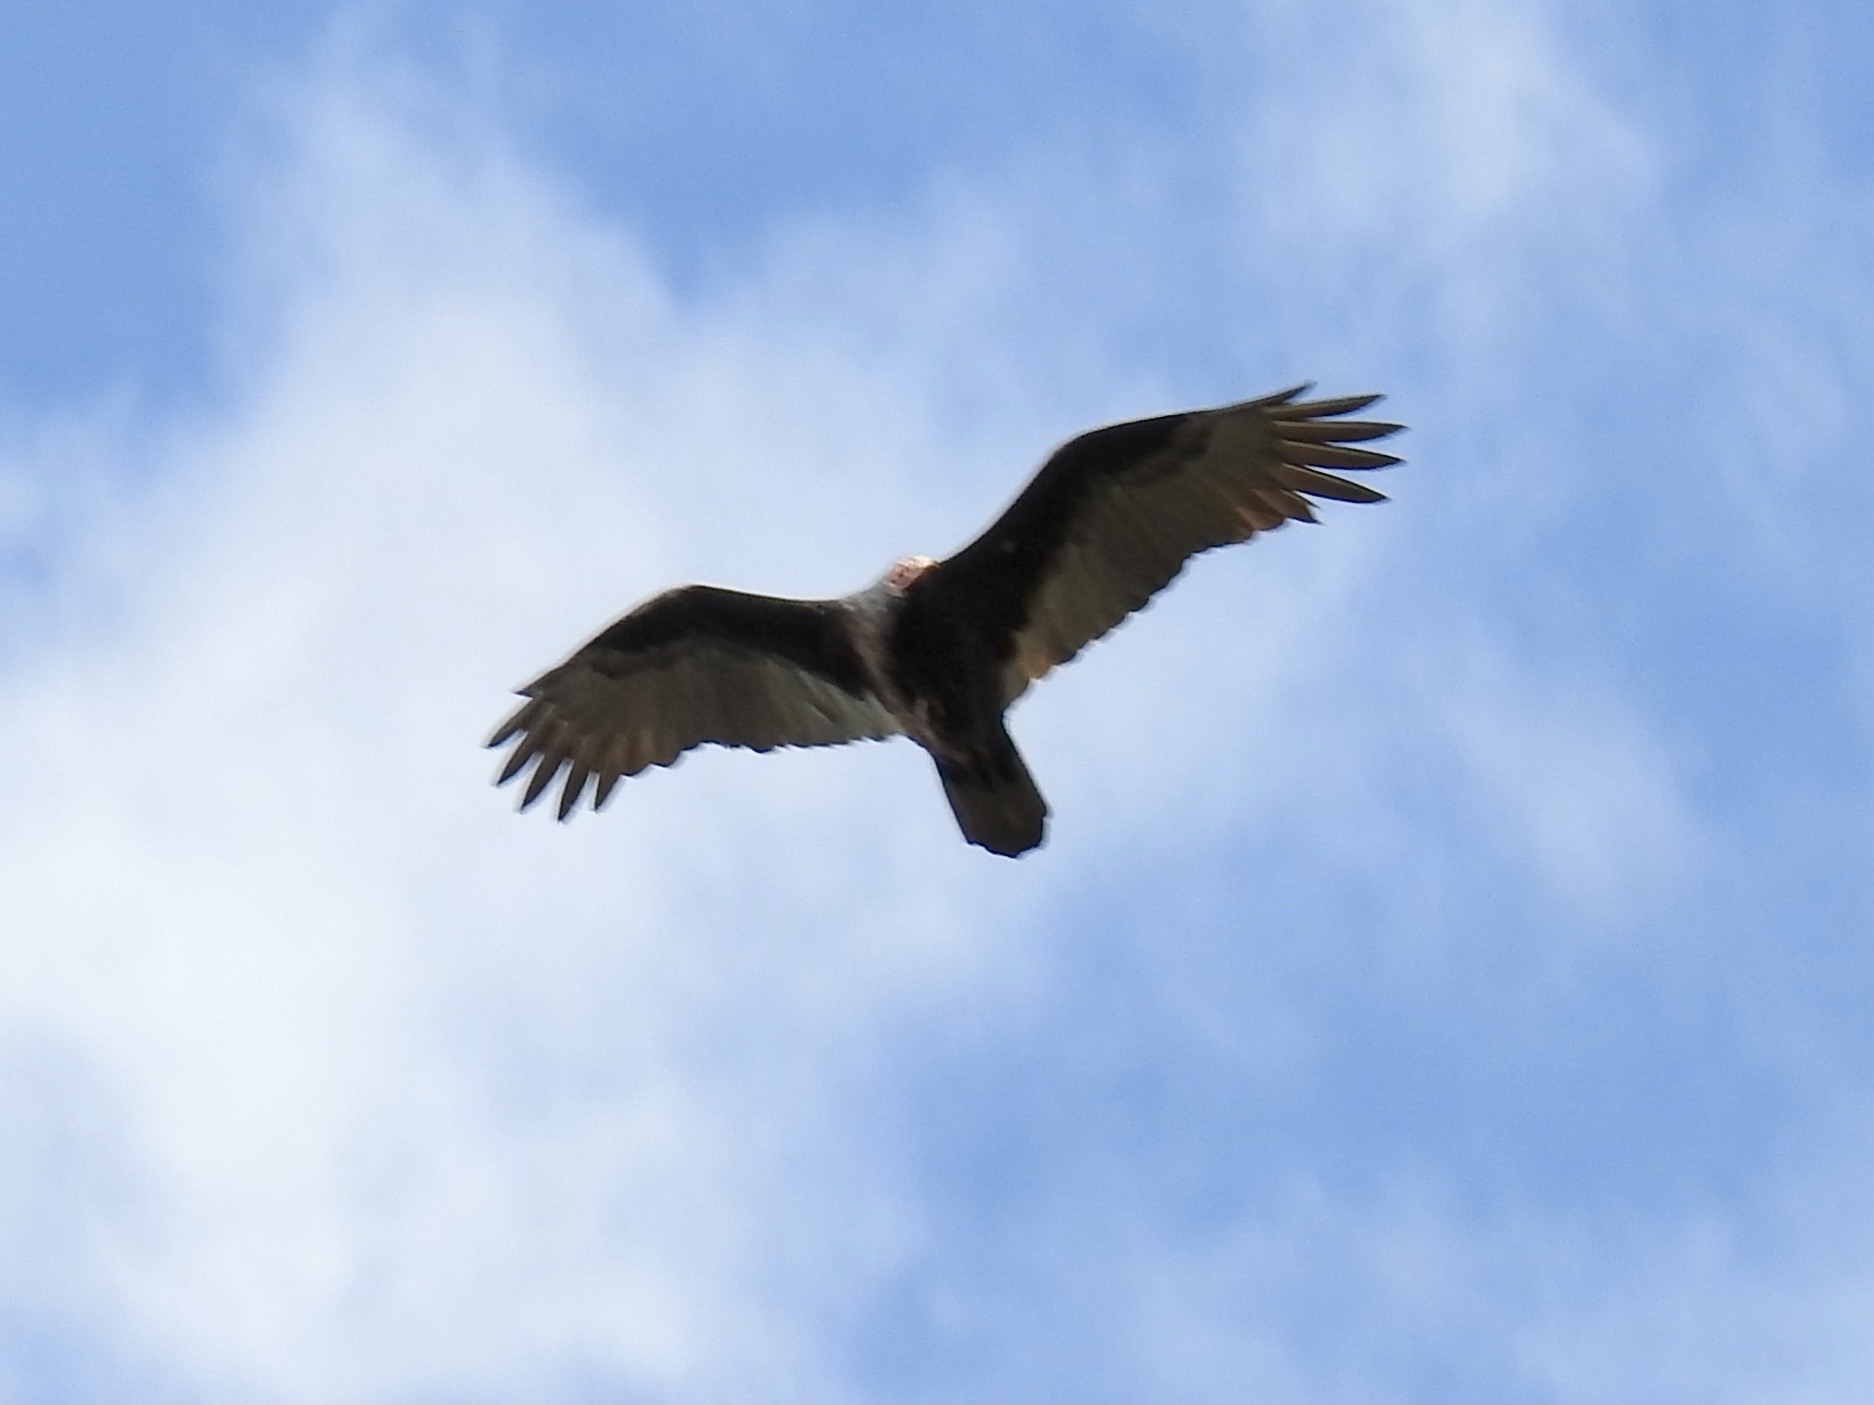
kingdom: Animalia
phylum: Chordata
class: Aves
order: Accipitriformes
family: Cathartidae
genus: Cathartes
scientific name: Cathartes aura
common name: Turkey vulture
